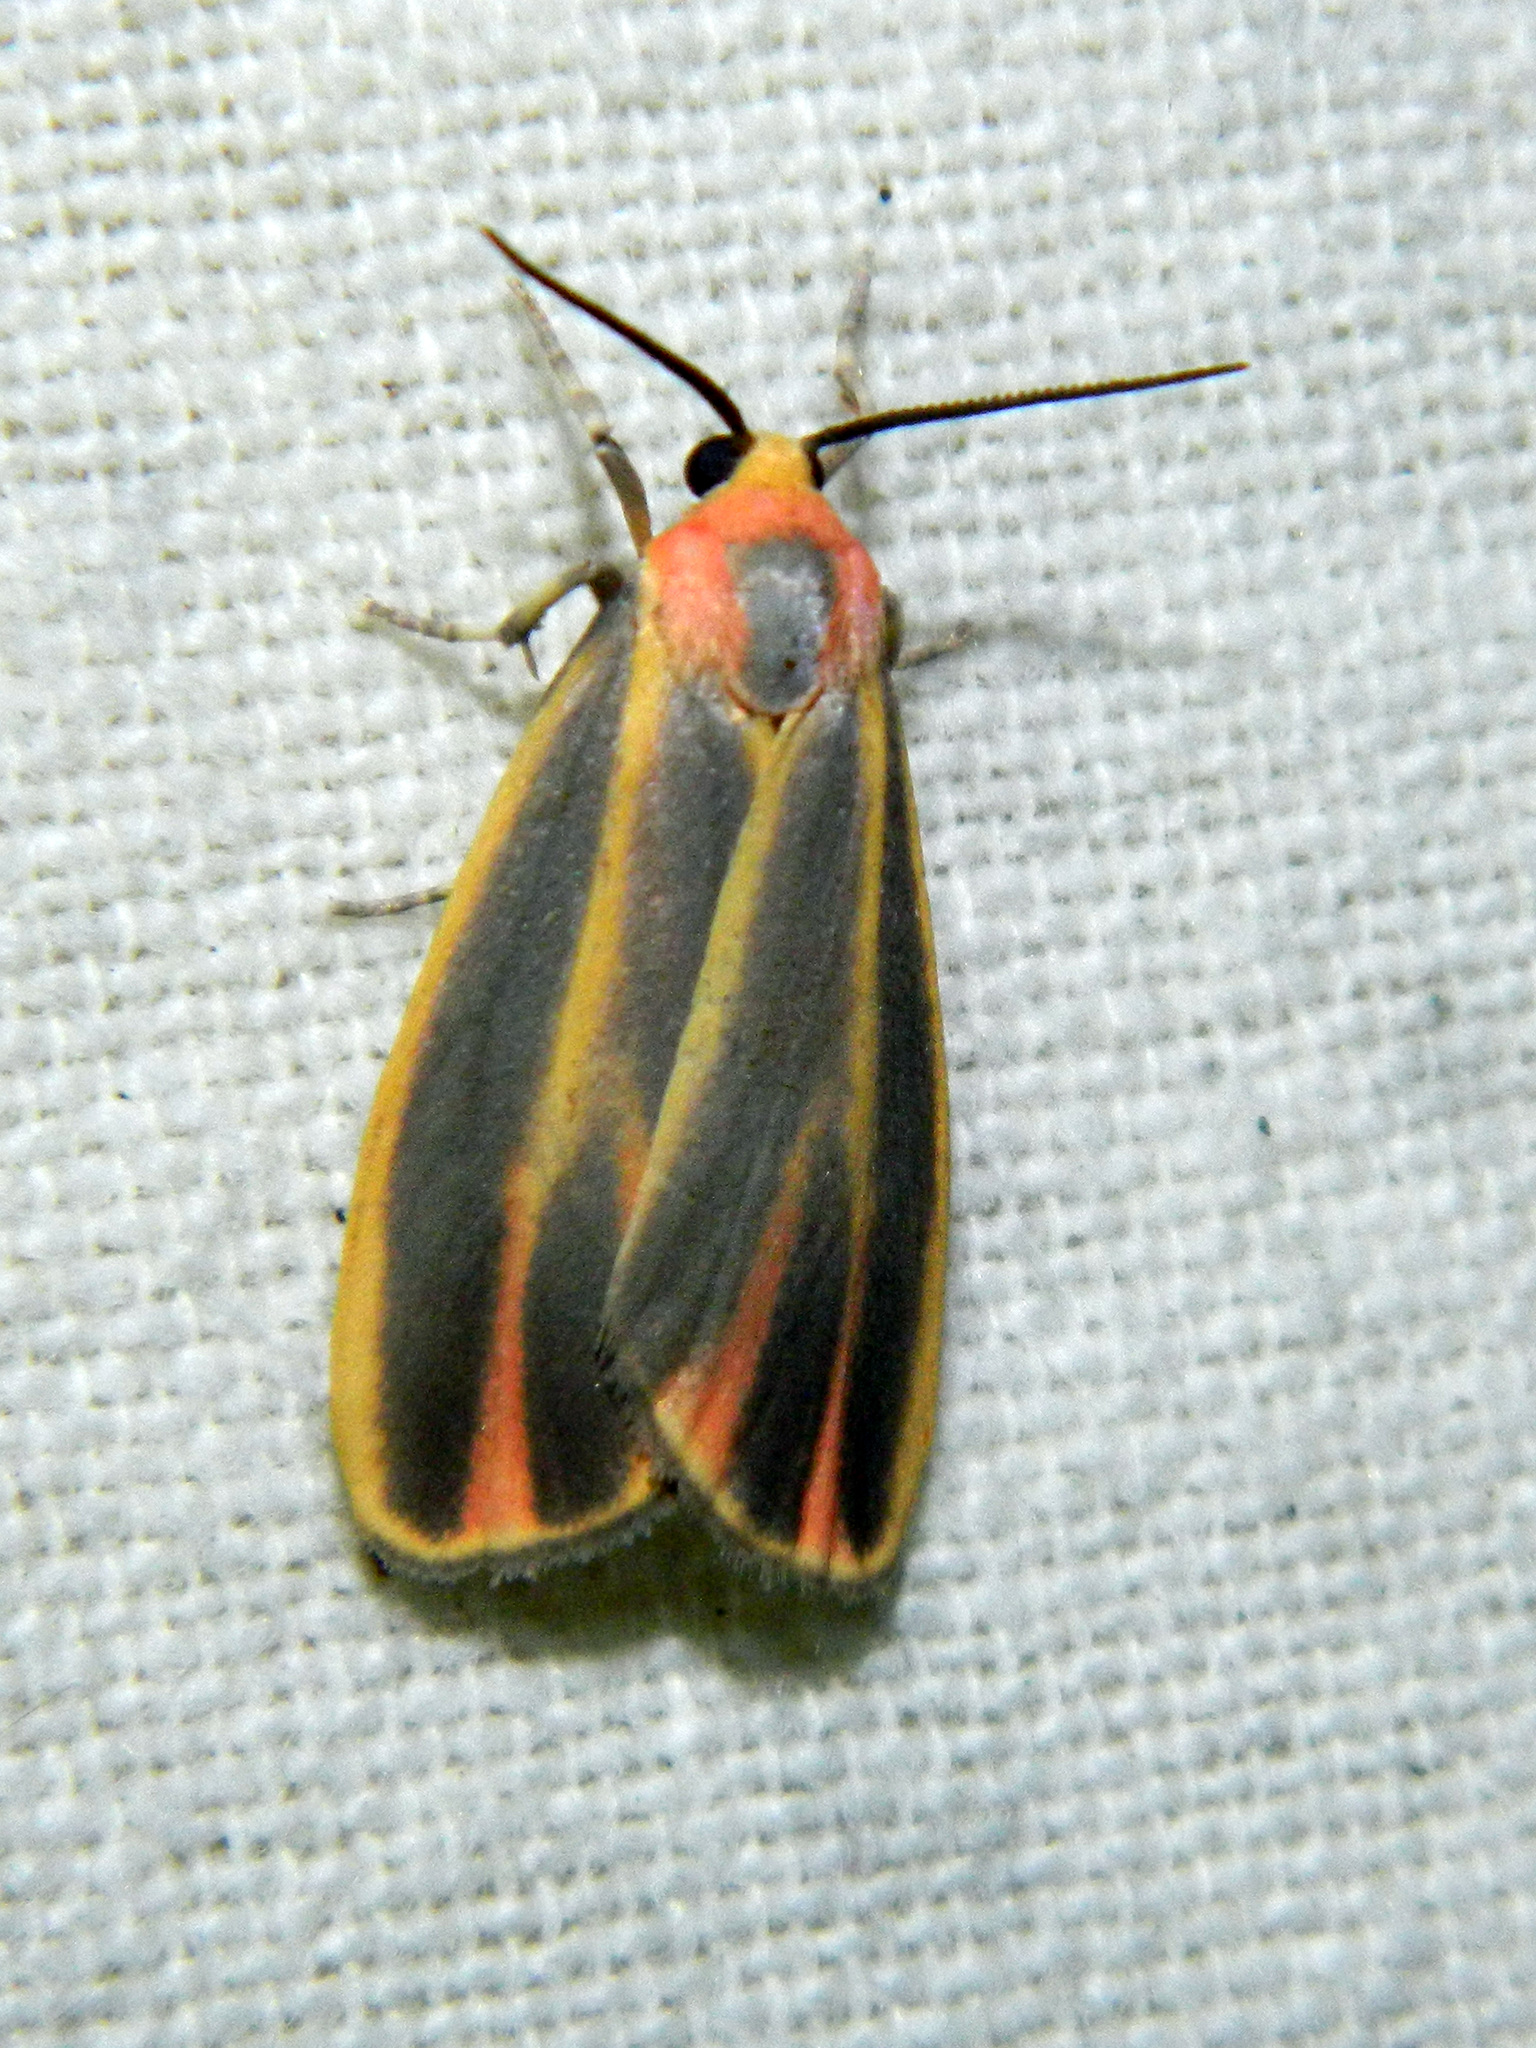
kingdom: Animalia
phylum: Arthropoda
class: Insecta
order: Lepidoptera
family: Erebidae
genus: Hypoprepia
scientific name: Hypoprepia fucosa
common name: Painted lichen moth
